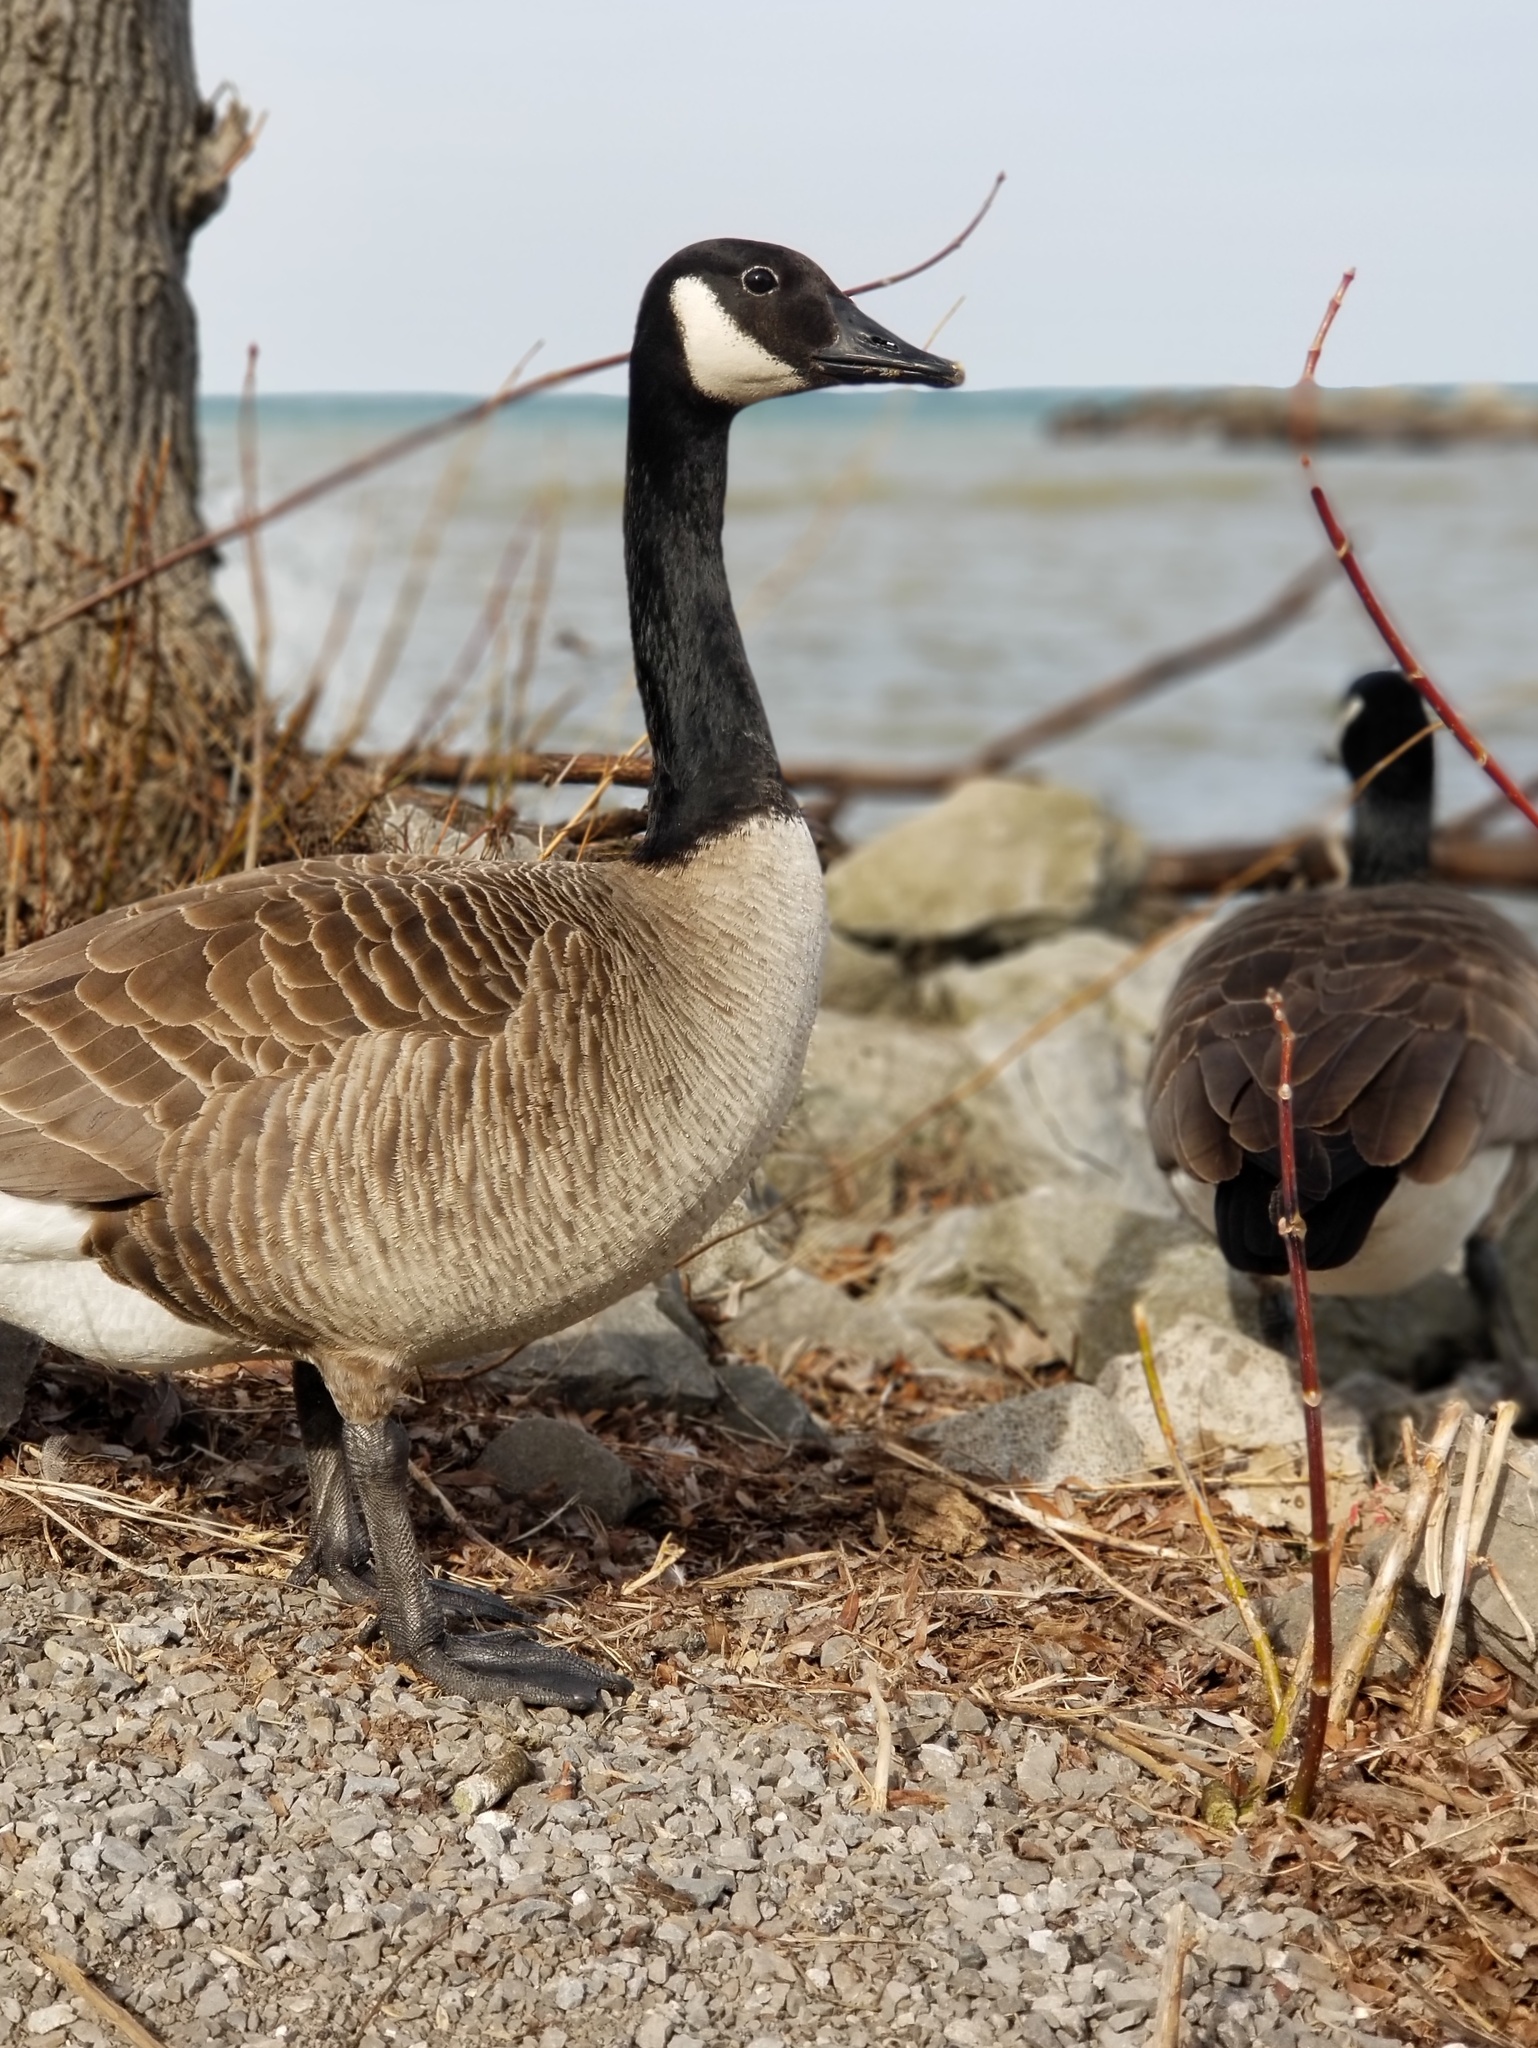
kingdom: Animalia
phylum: Chordata
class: Aves
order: Anseriformes
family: Anatidae
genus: Branta
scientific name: Branta canadensis
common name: Canada goose
